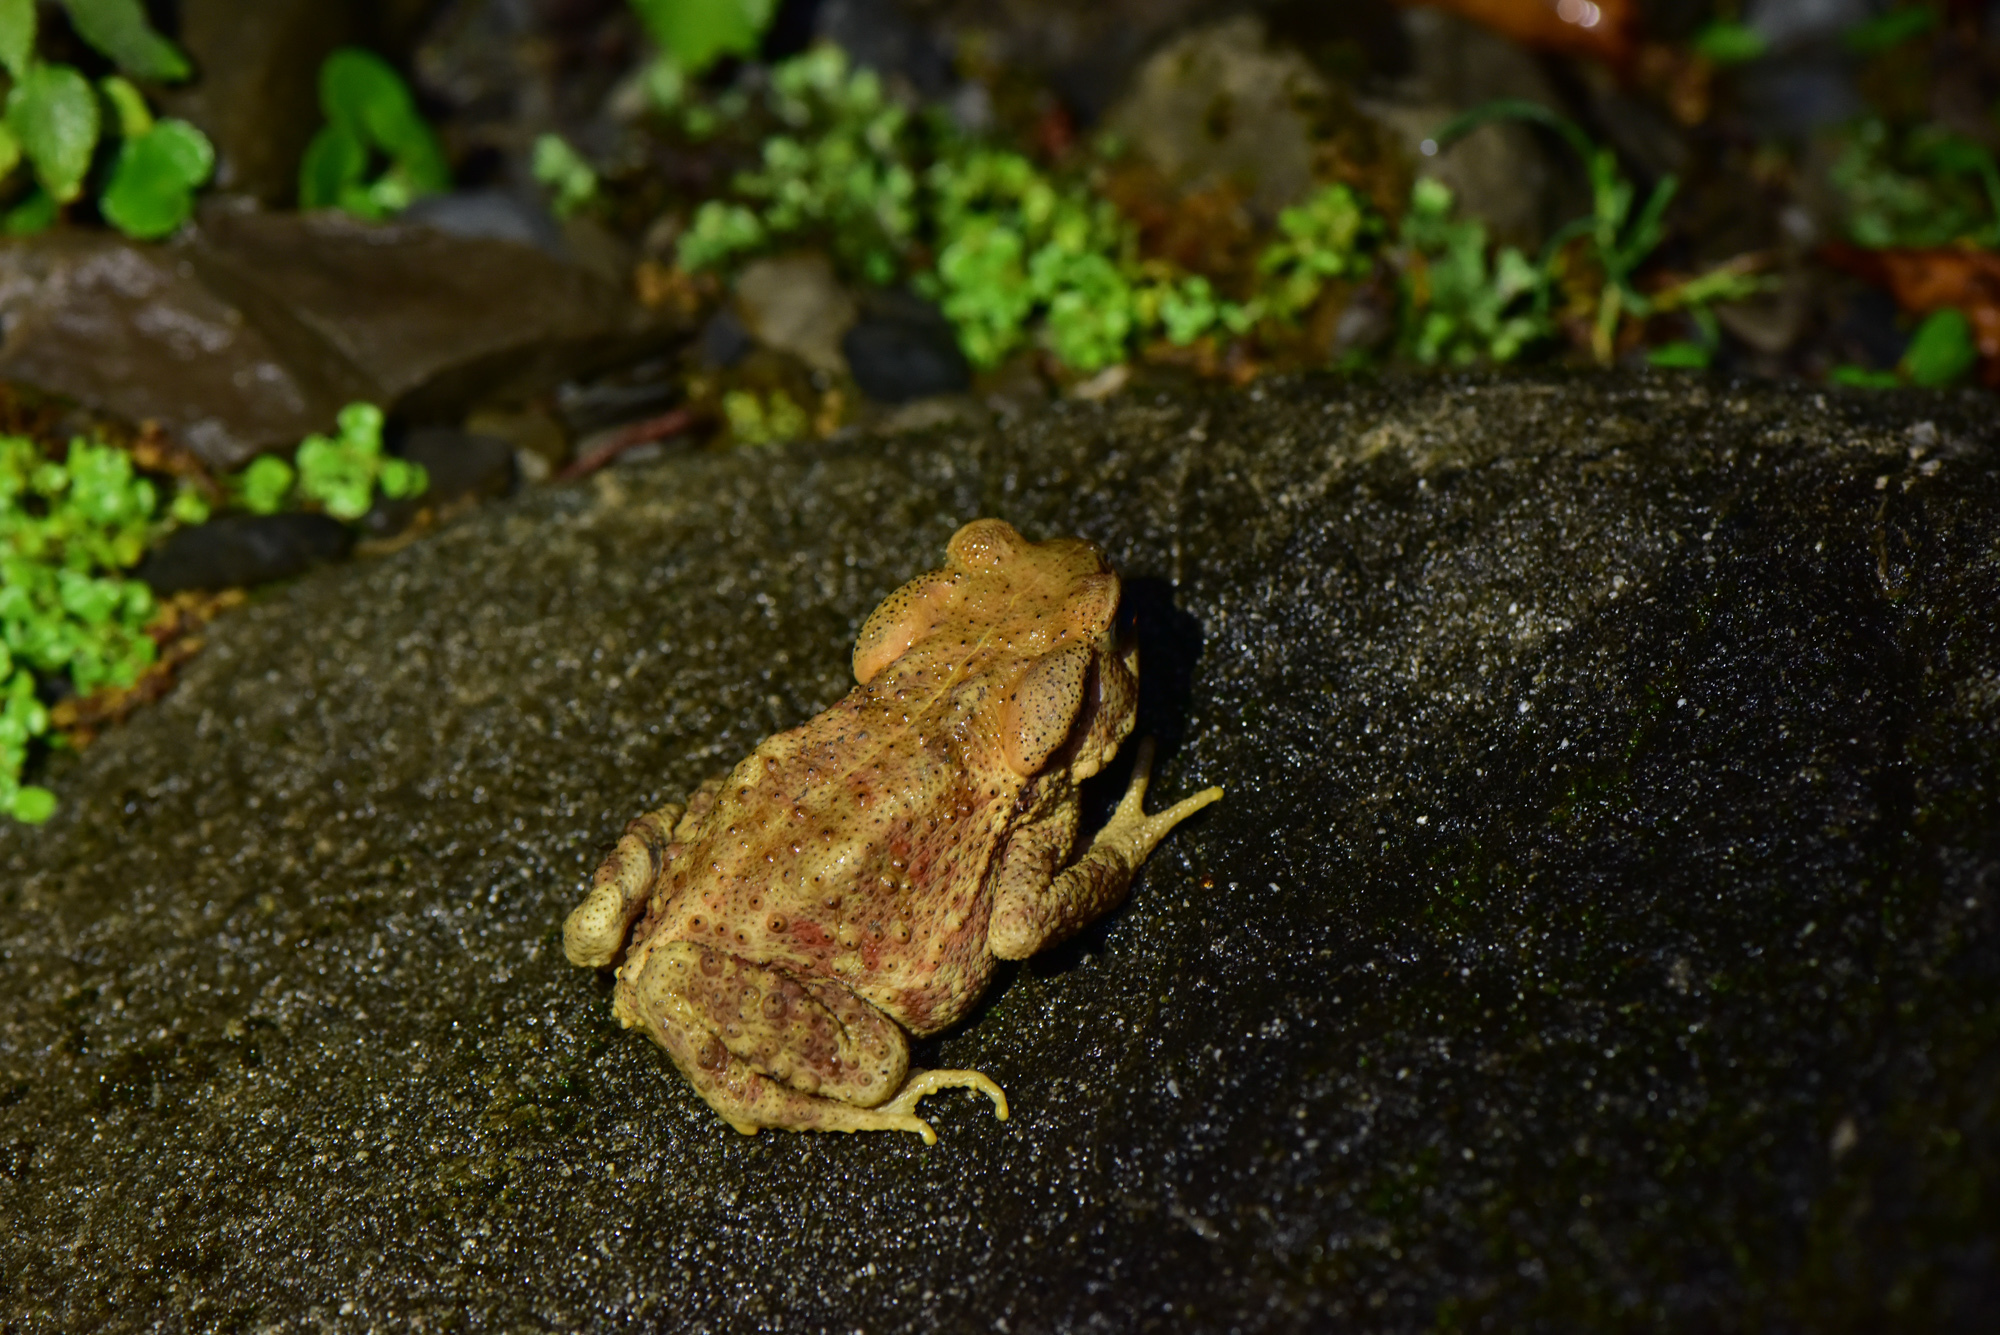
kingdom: Animalia
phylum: Chordata
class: Amphibia
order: Anura
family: Bufonidae
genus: Bufo
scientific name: Bufo bankorensis
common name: Bankor toad
